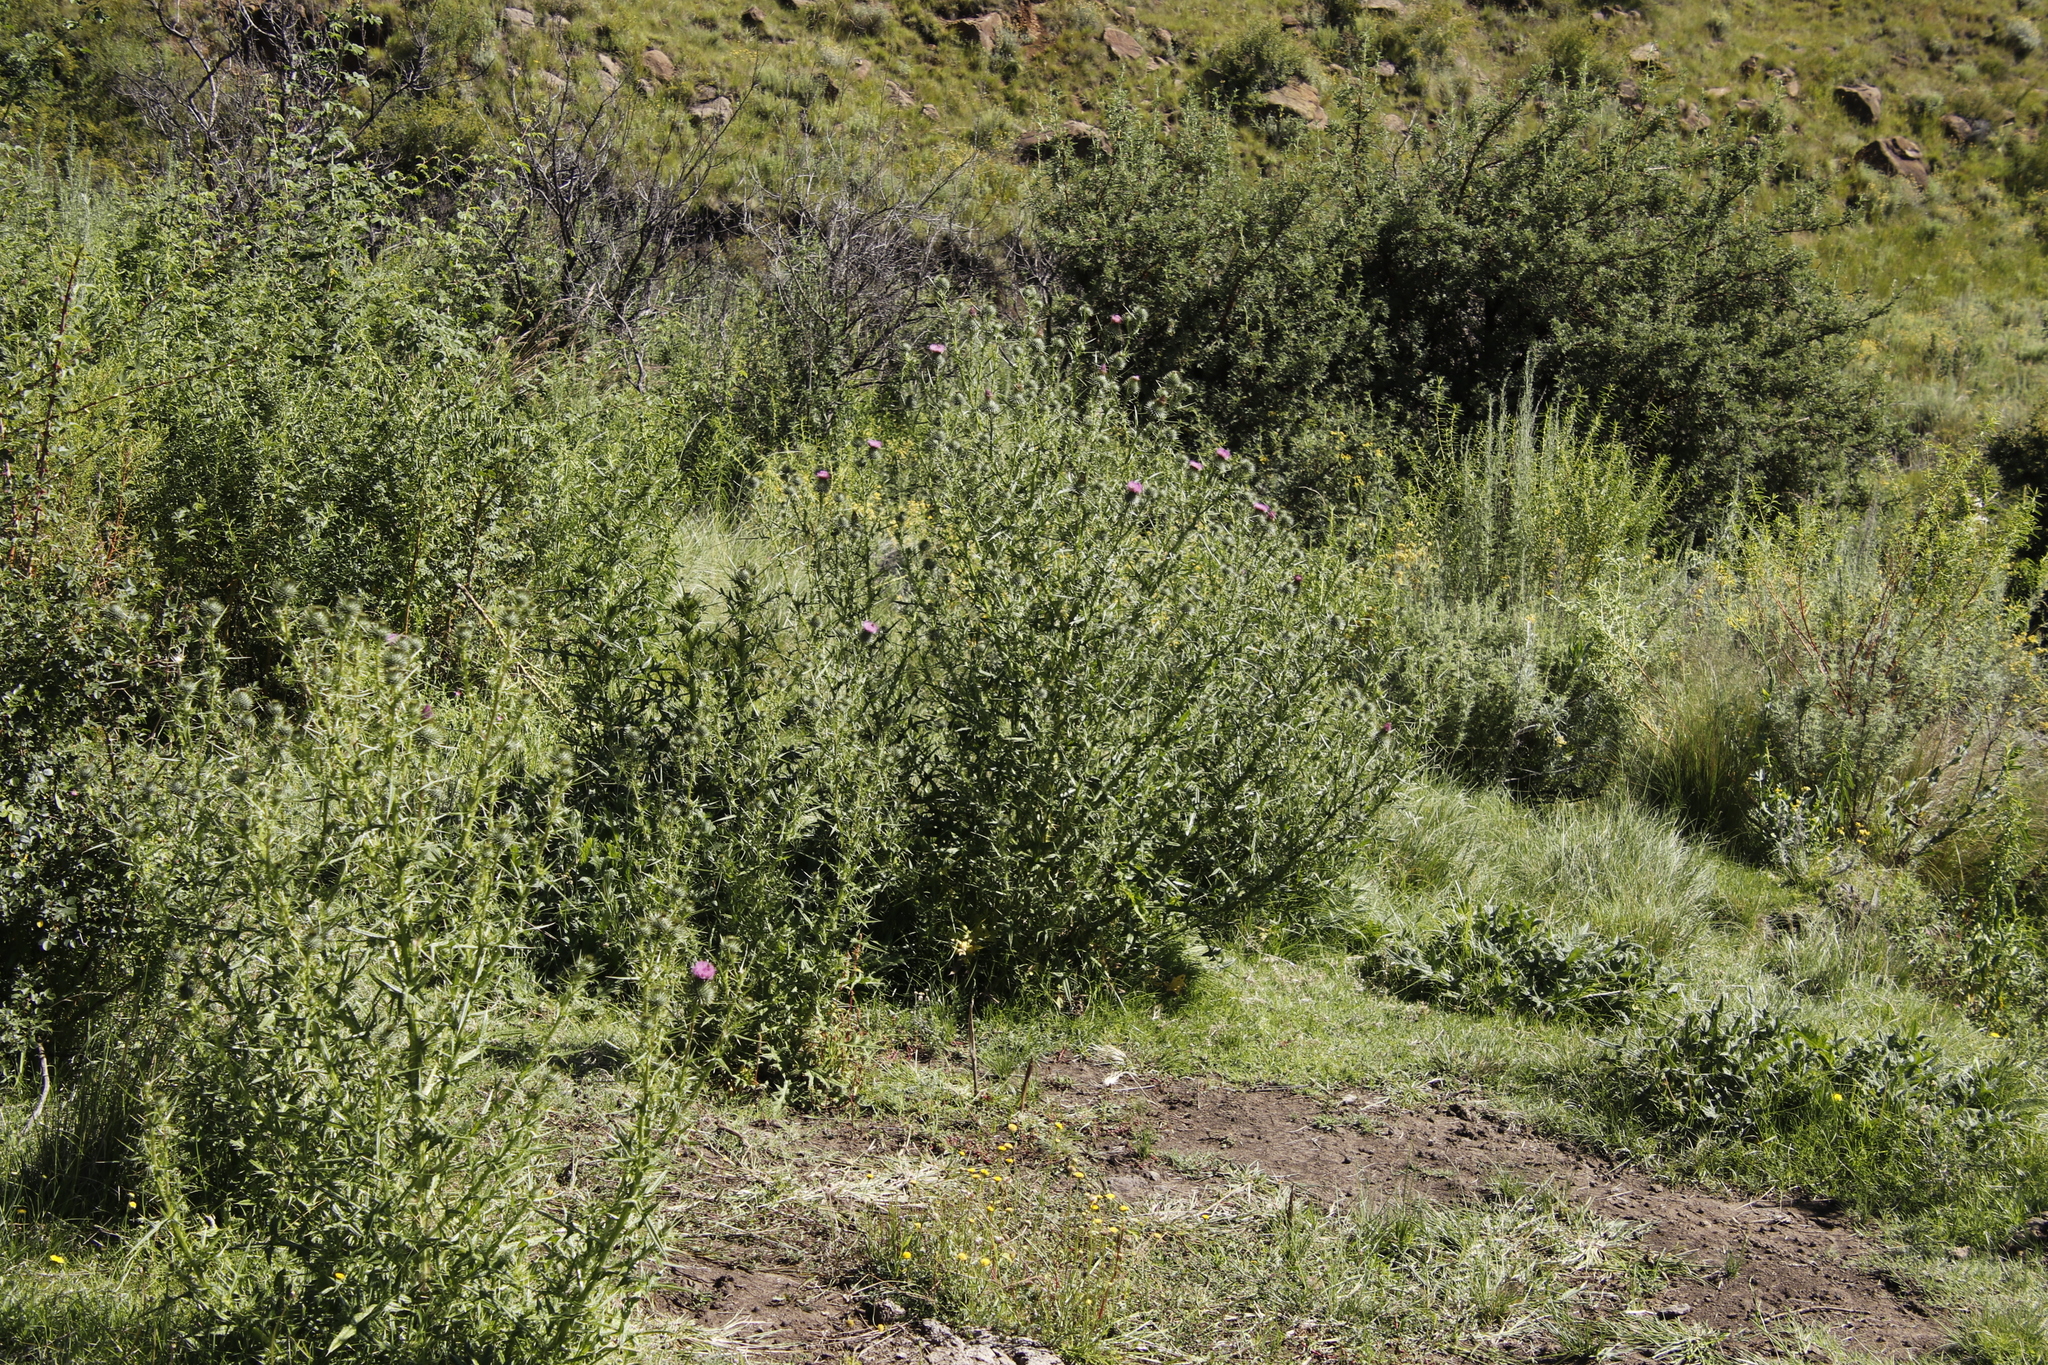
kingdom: Plantae
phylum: Tracheophyta
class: Magnoliopsida
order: Asterales
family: Asteraceae
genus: Cirsium
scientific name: Cirsium vulgare
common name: Bull thistle
